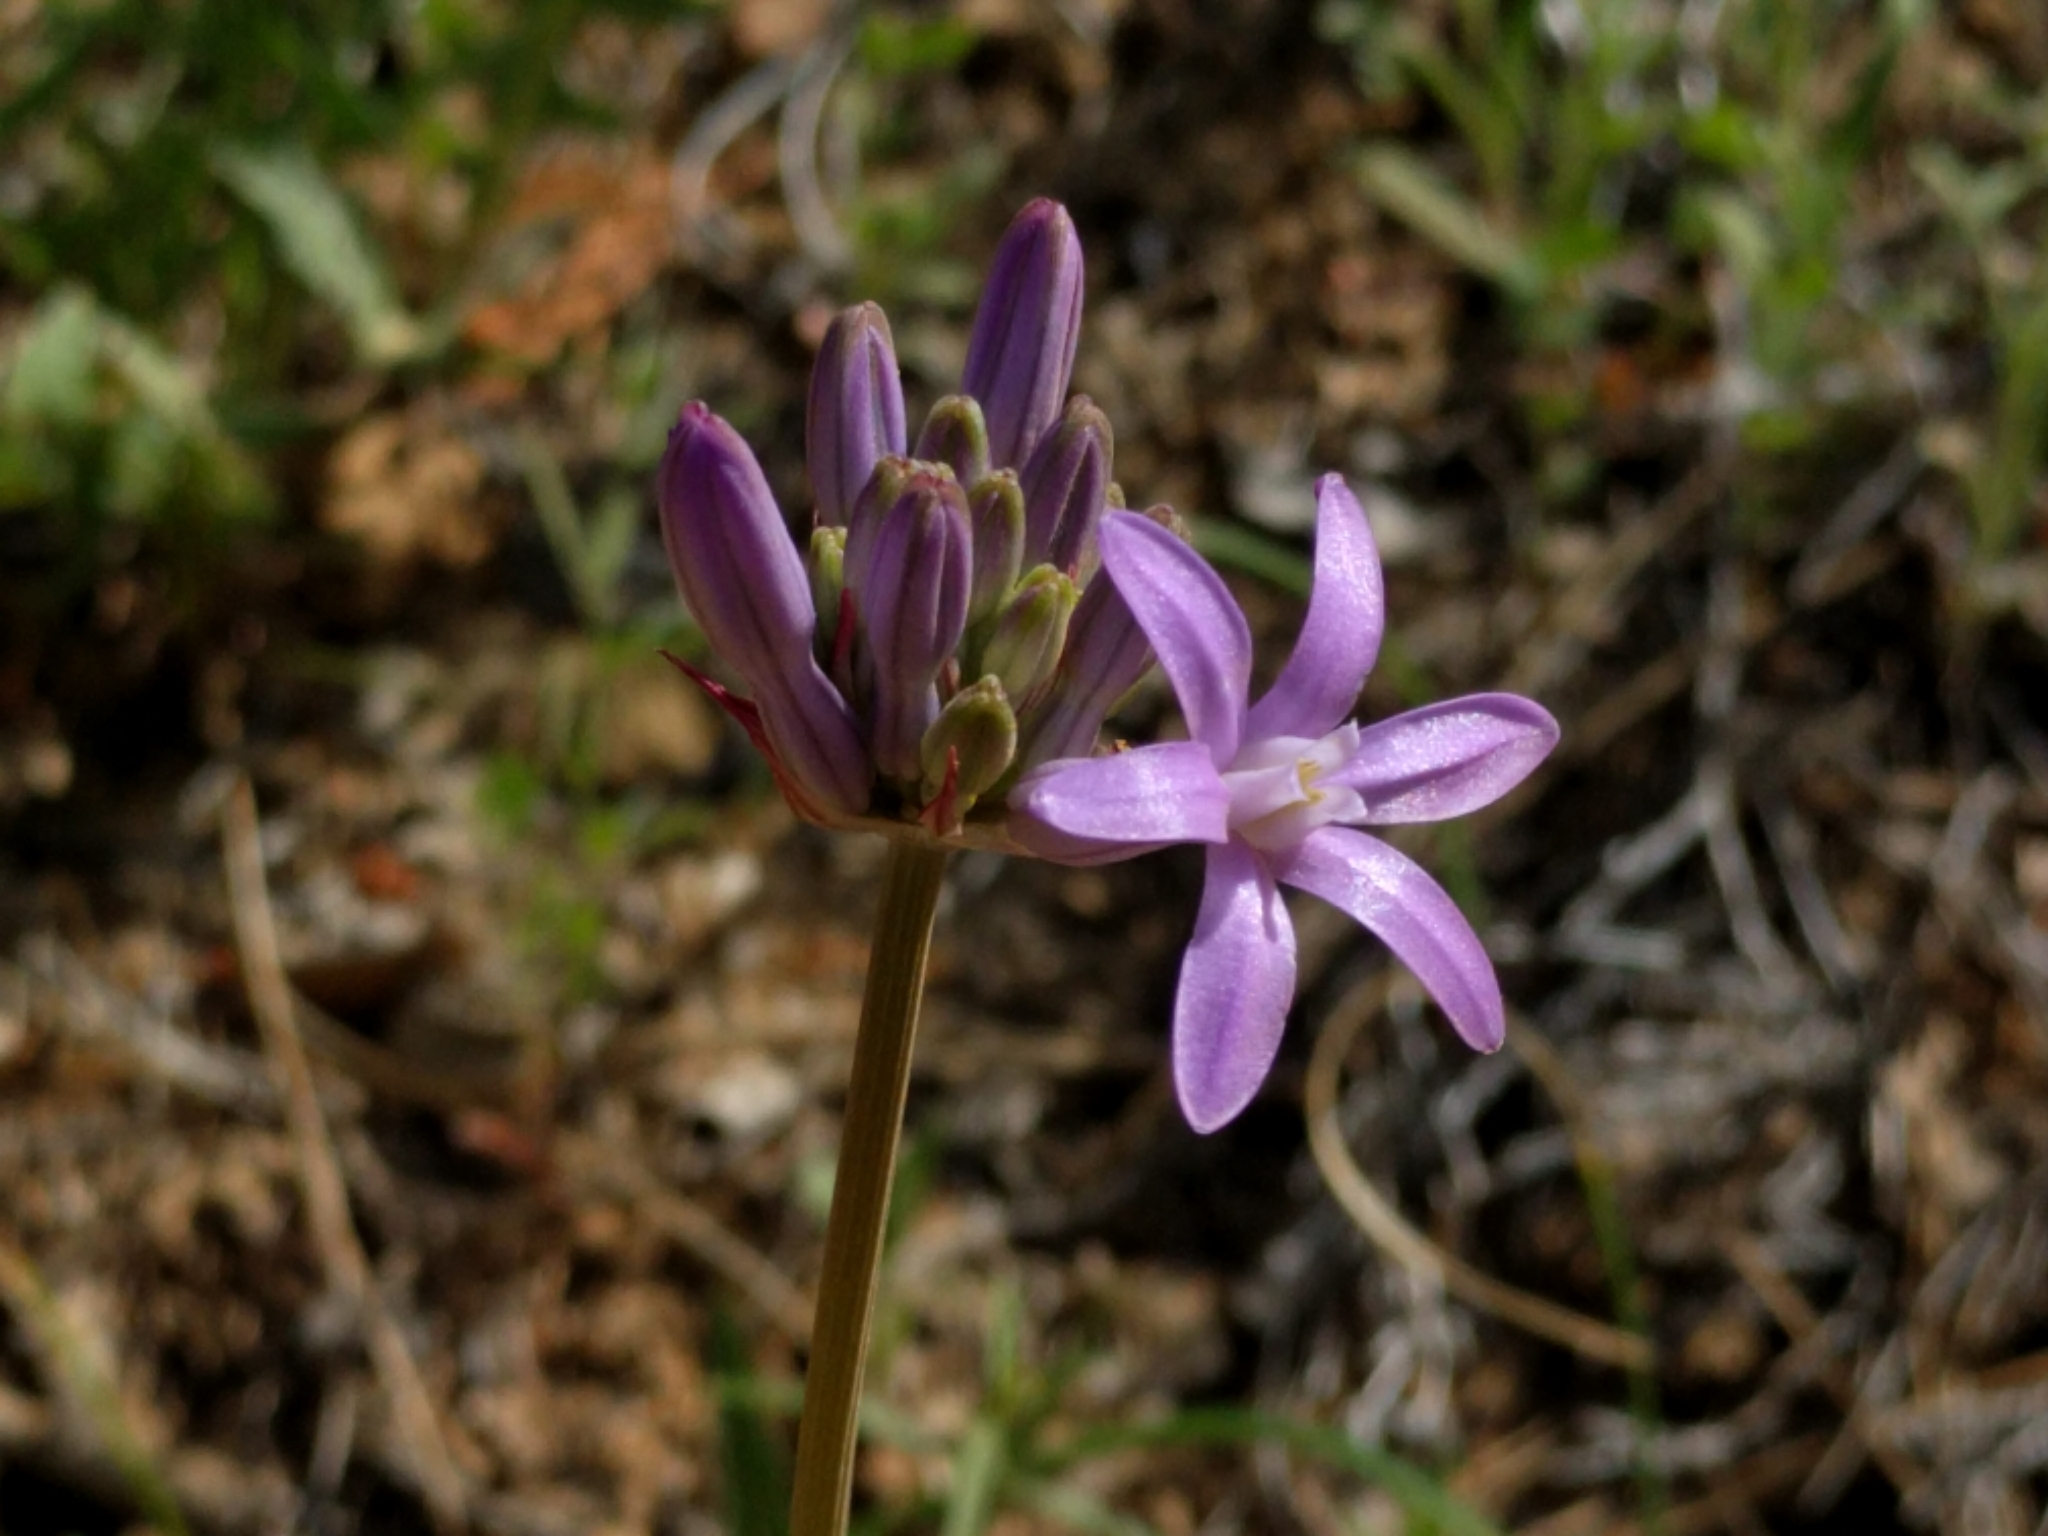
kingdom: Plantae
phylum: Tracheophyta
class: Liliopsida
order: Asparagales
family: Asparagaceae
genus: Dichelostemma
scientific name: Dichelostemma multiflorum
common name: Round-tooth ookow
